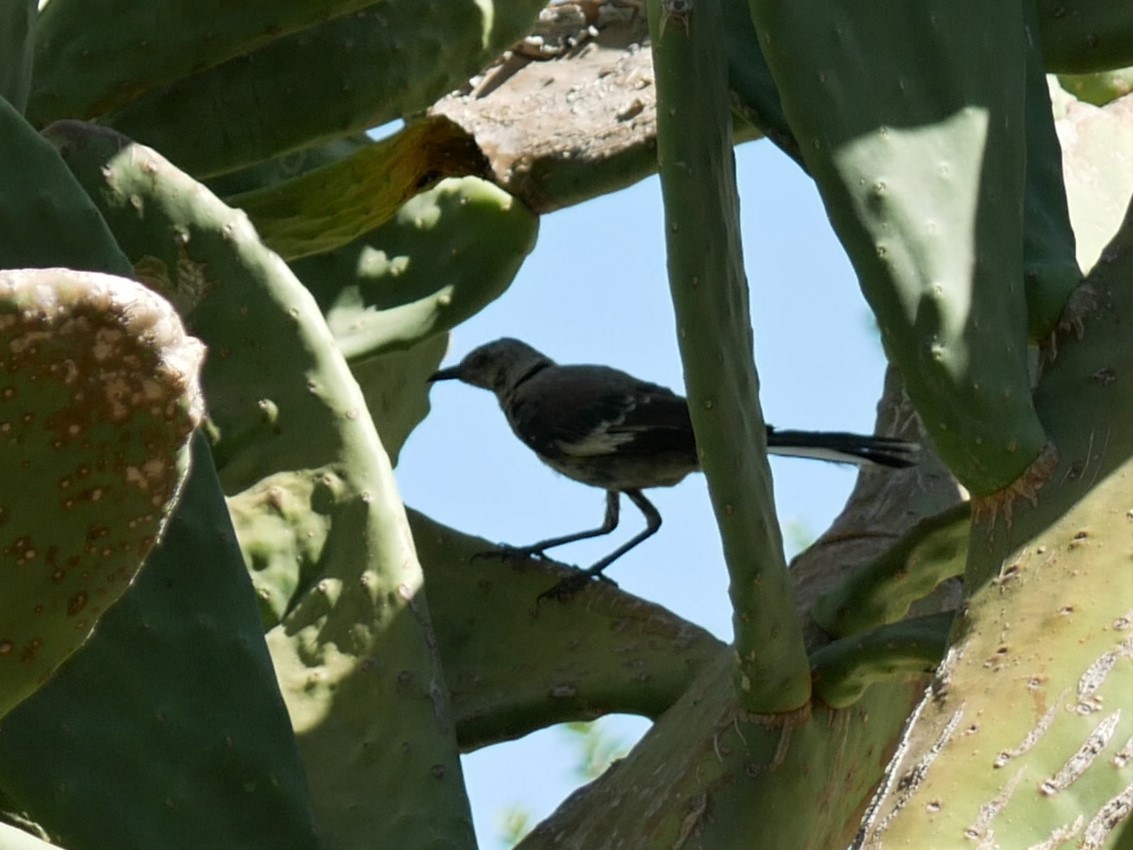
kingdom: Animalia
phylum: Chordata
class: Aves
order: Passeriformes
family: Mimidae
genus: Mimus
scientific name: Mimus polyglottos
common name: Northern mockingbird
